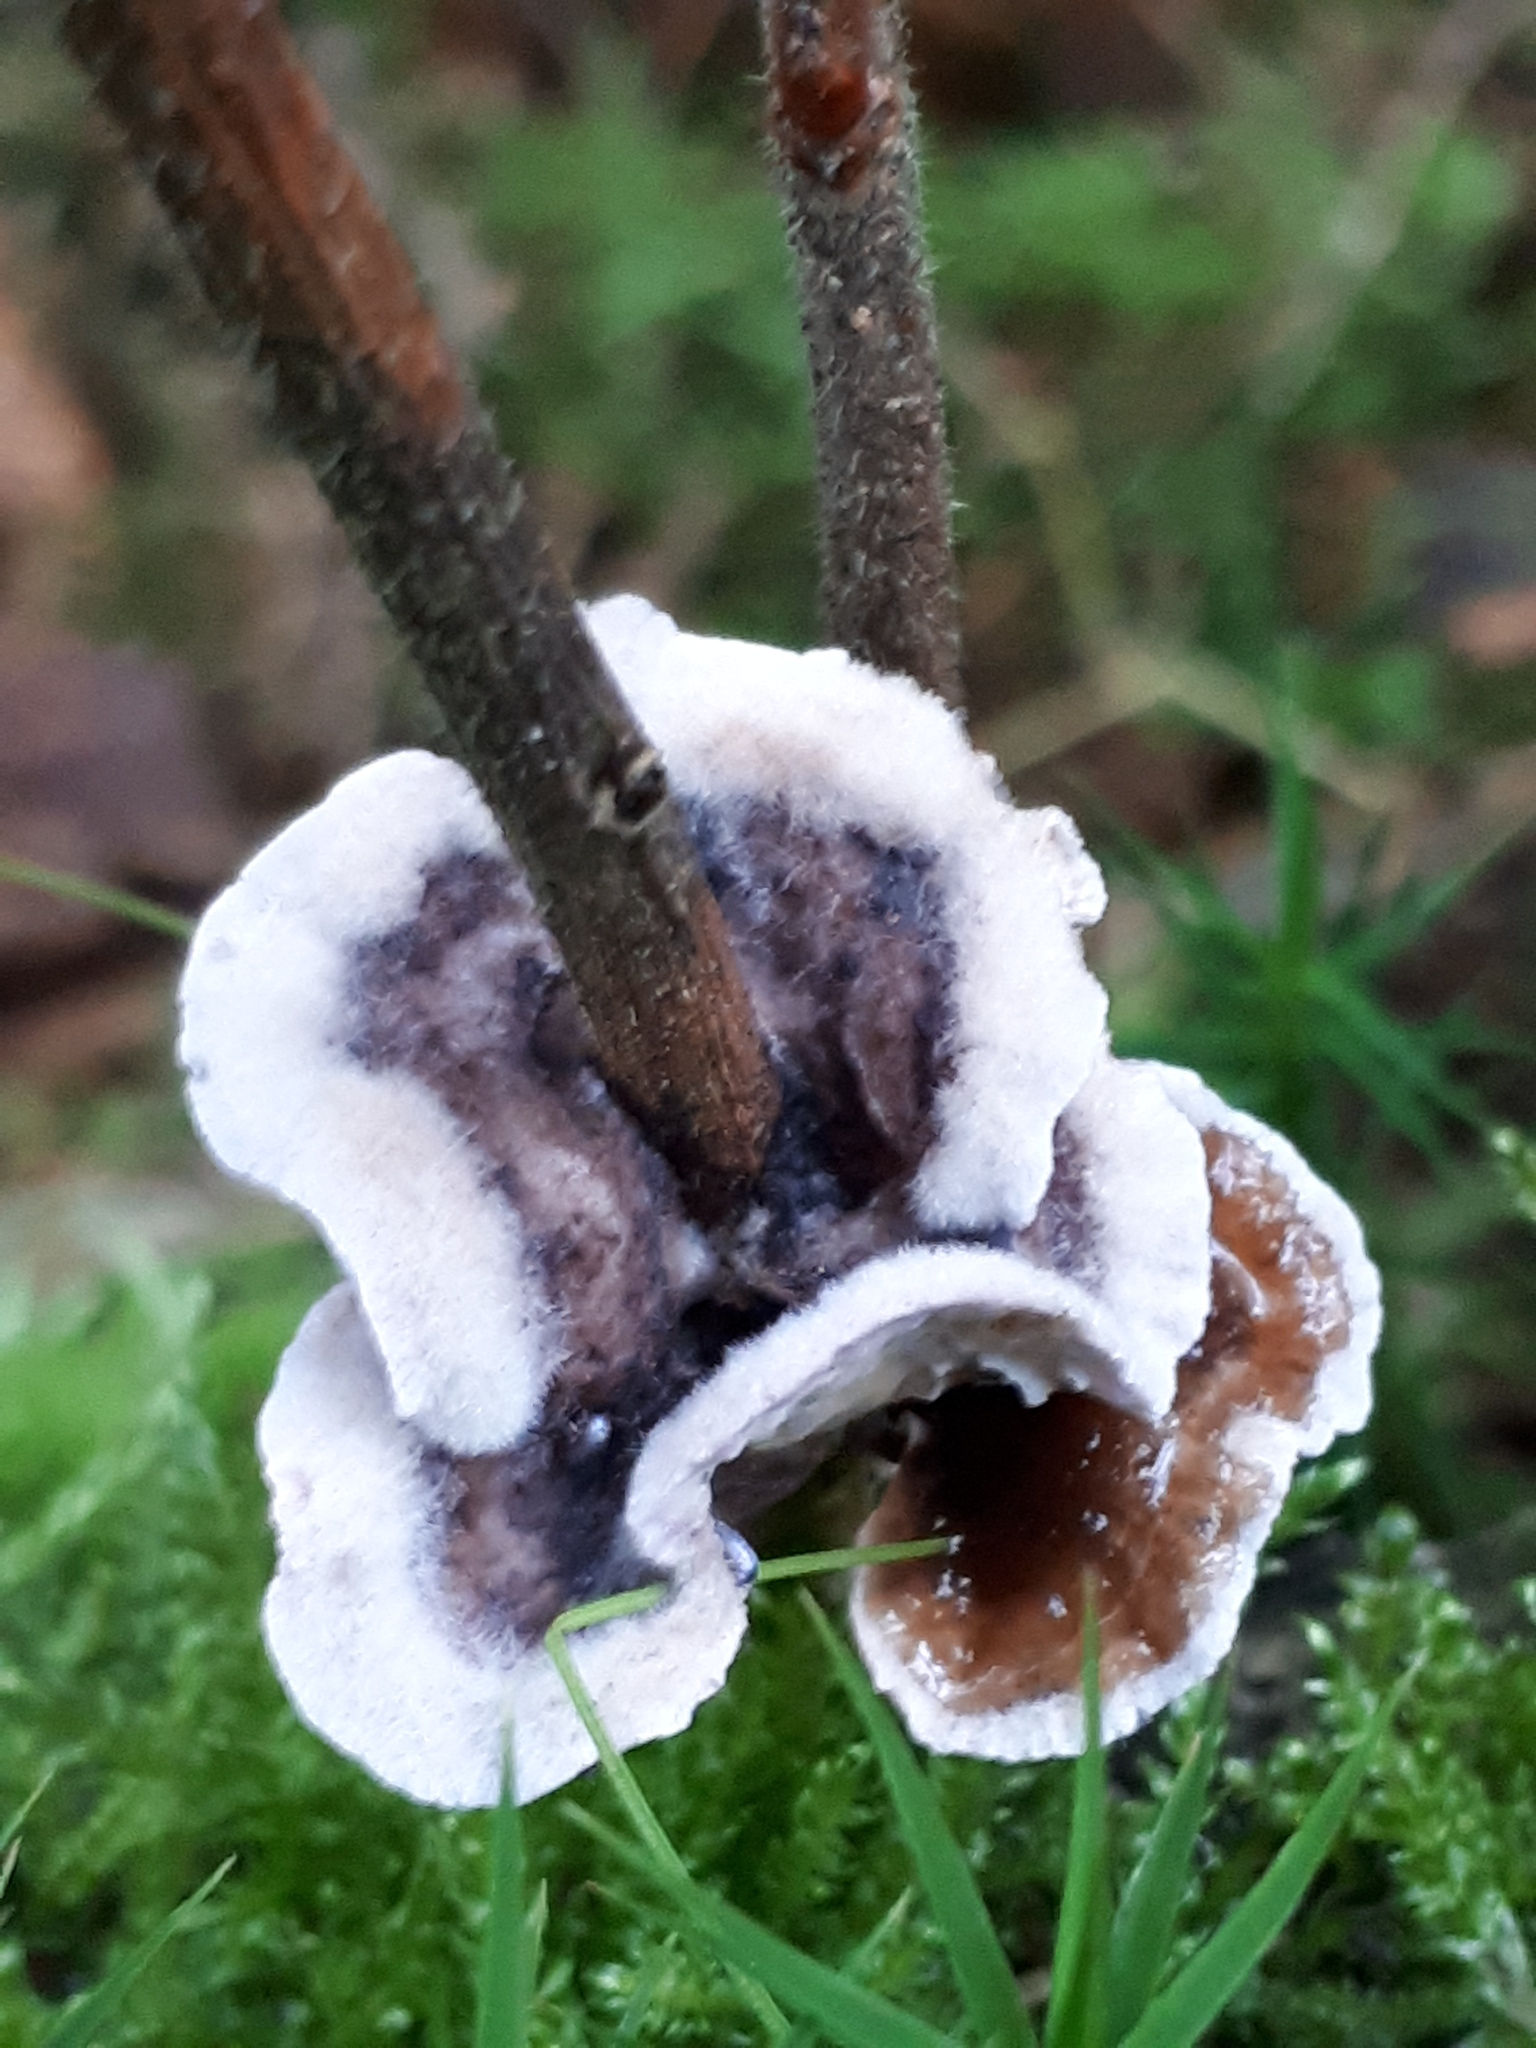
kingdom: Fungi
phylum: Basidiomycota
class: Agaricomycetes
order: Agaricales
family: Cyphellaceae
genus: Chondrostereum
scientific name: Chondrostereum purpureum
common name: Silver leaf disease
